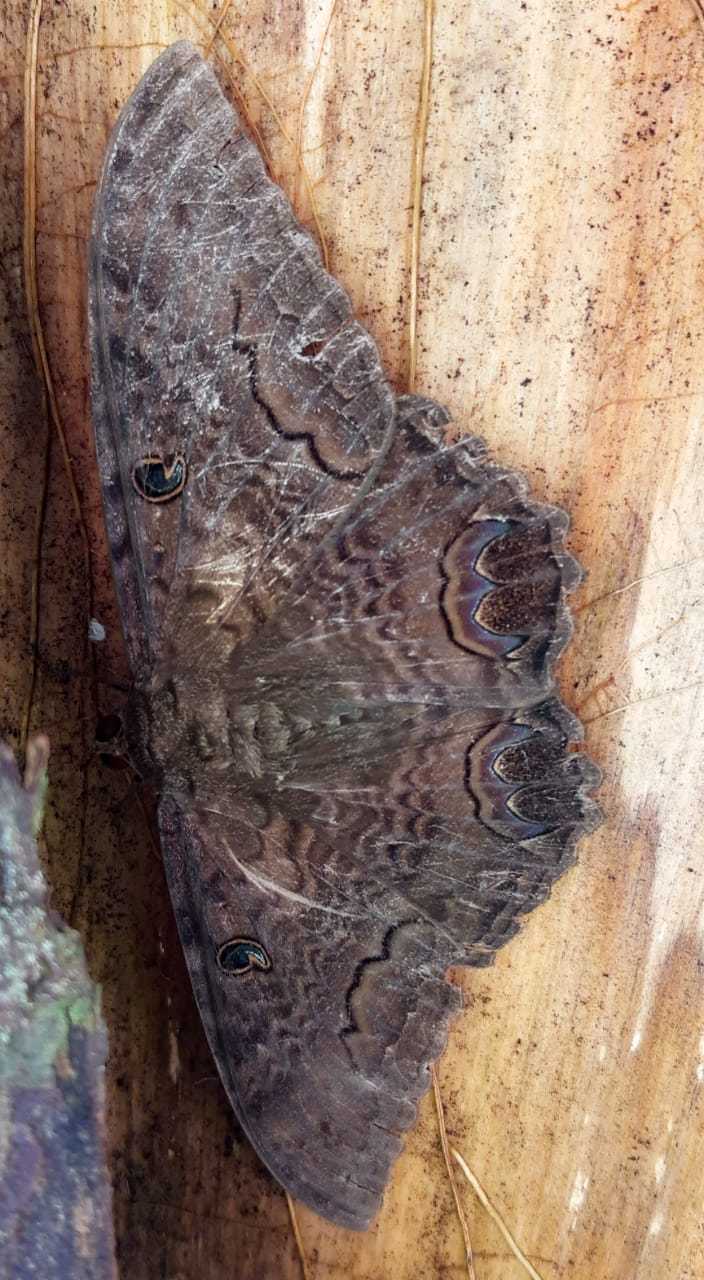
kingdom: Animalia
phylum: Arthropoda
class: Insecta
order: Lepidoptera
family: Erebidae
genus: Ascalapha
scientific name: Ascalapha odorata
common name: Black witch
